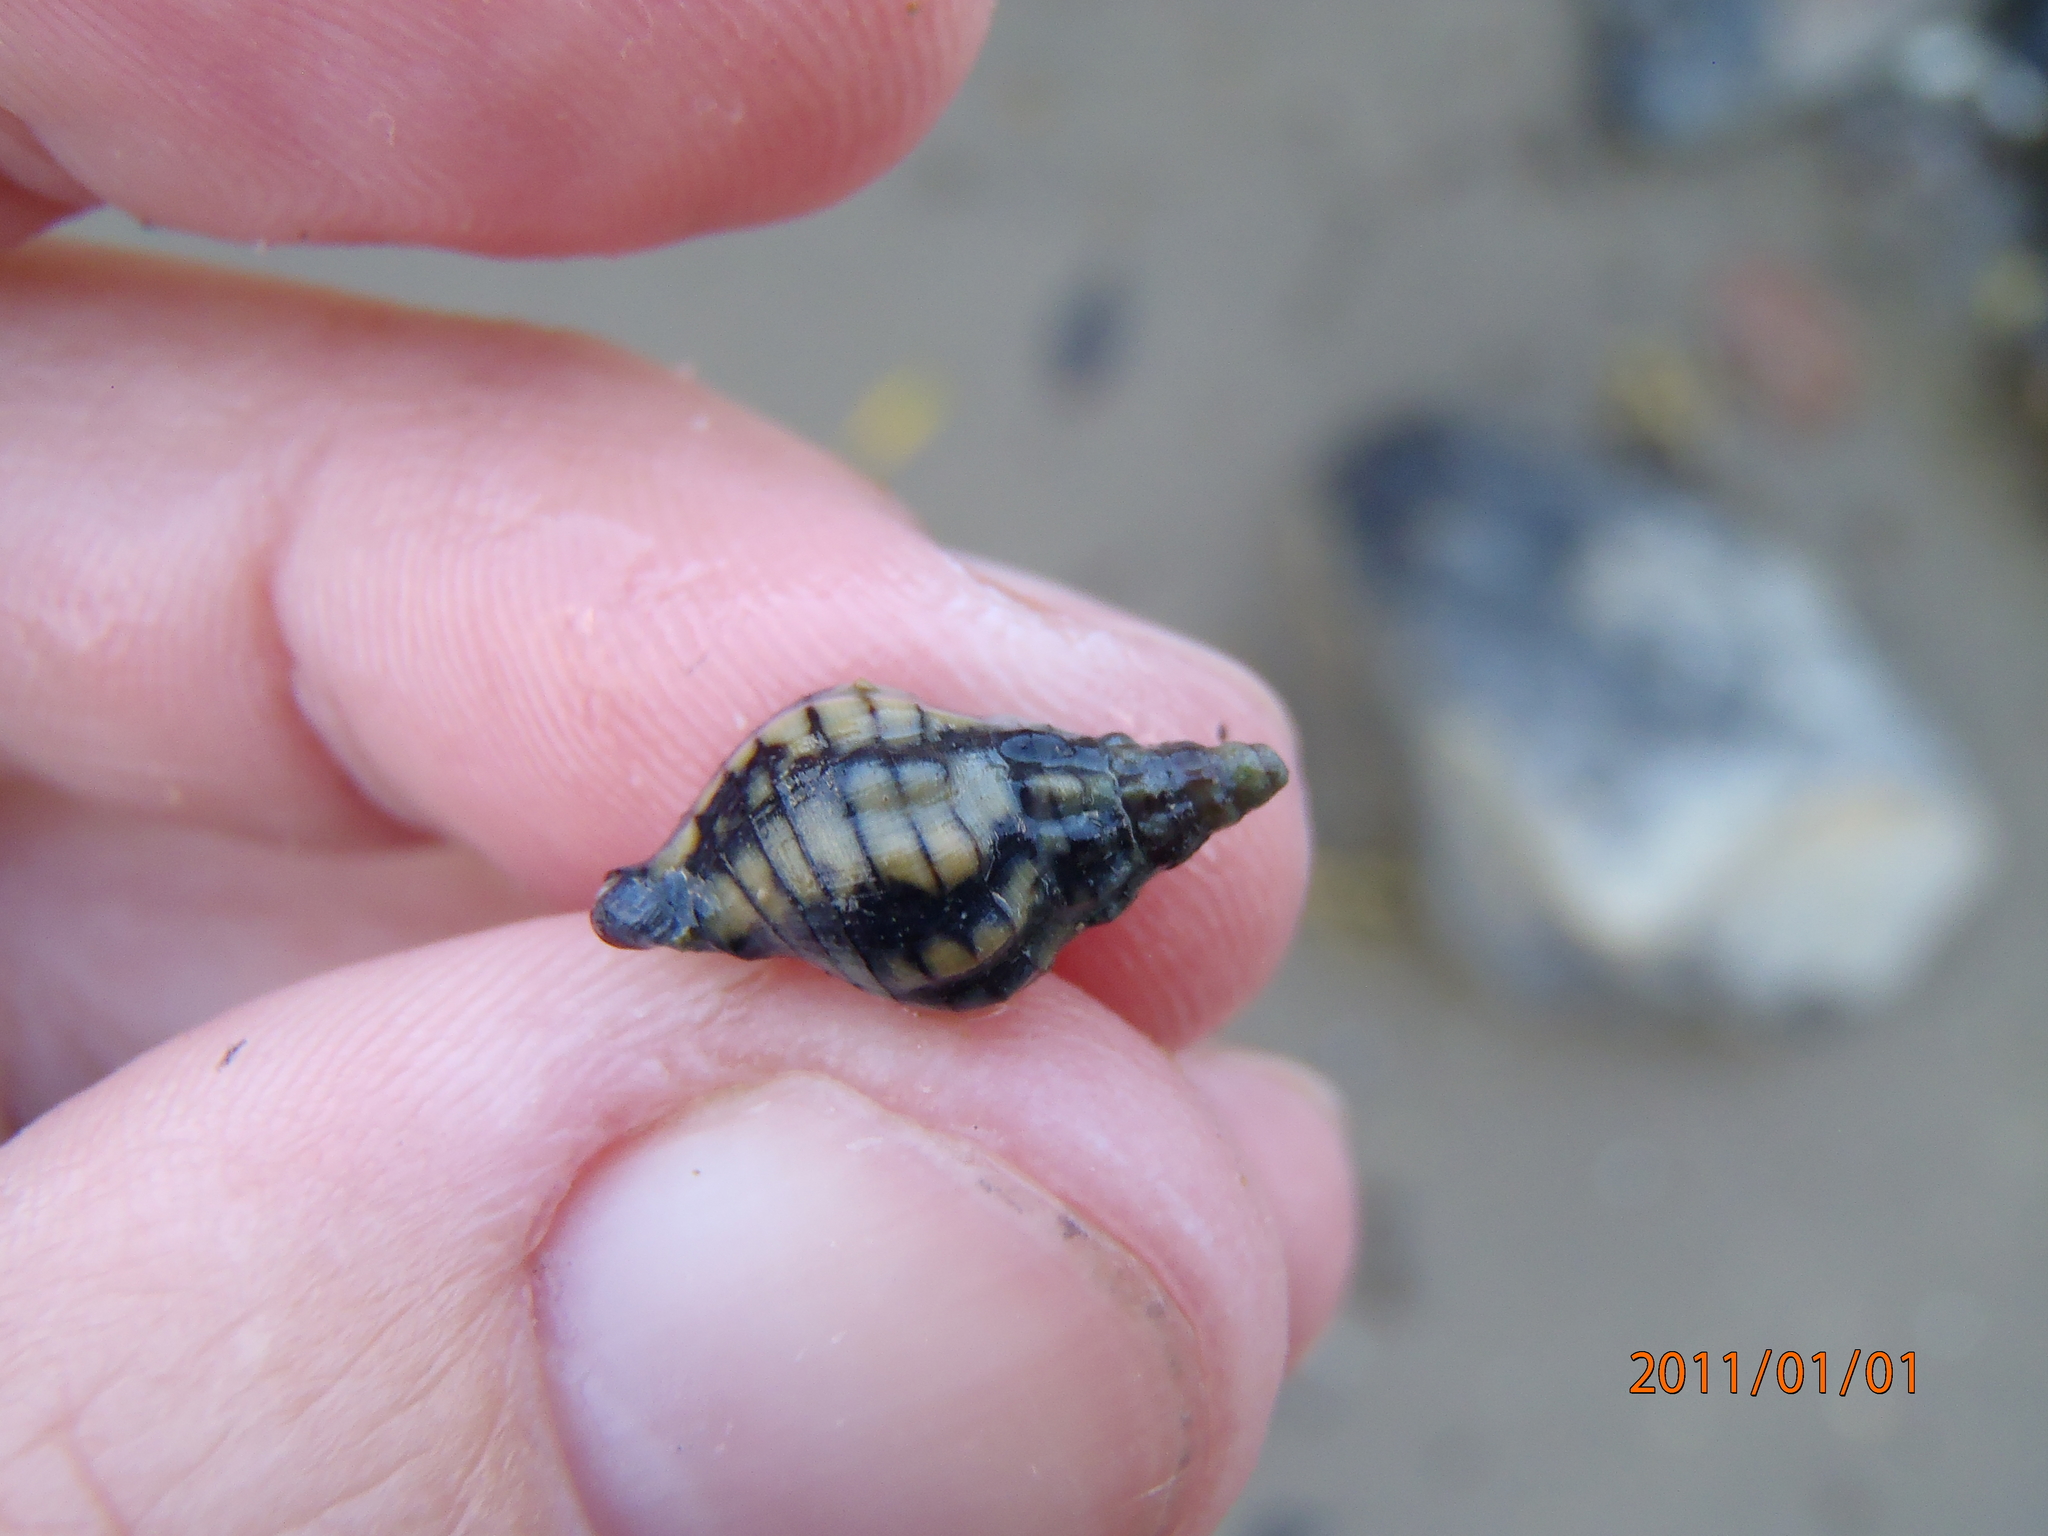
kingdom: Animalia
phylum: Mollusca
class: Gastropoda
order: Neogastropoda
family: Cominellidae
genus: Cominella
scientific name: Cominella virgata
